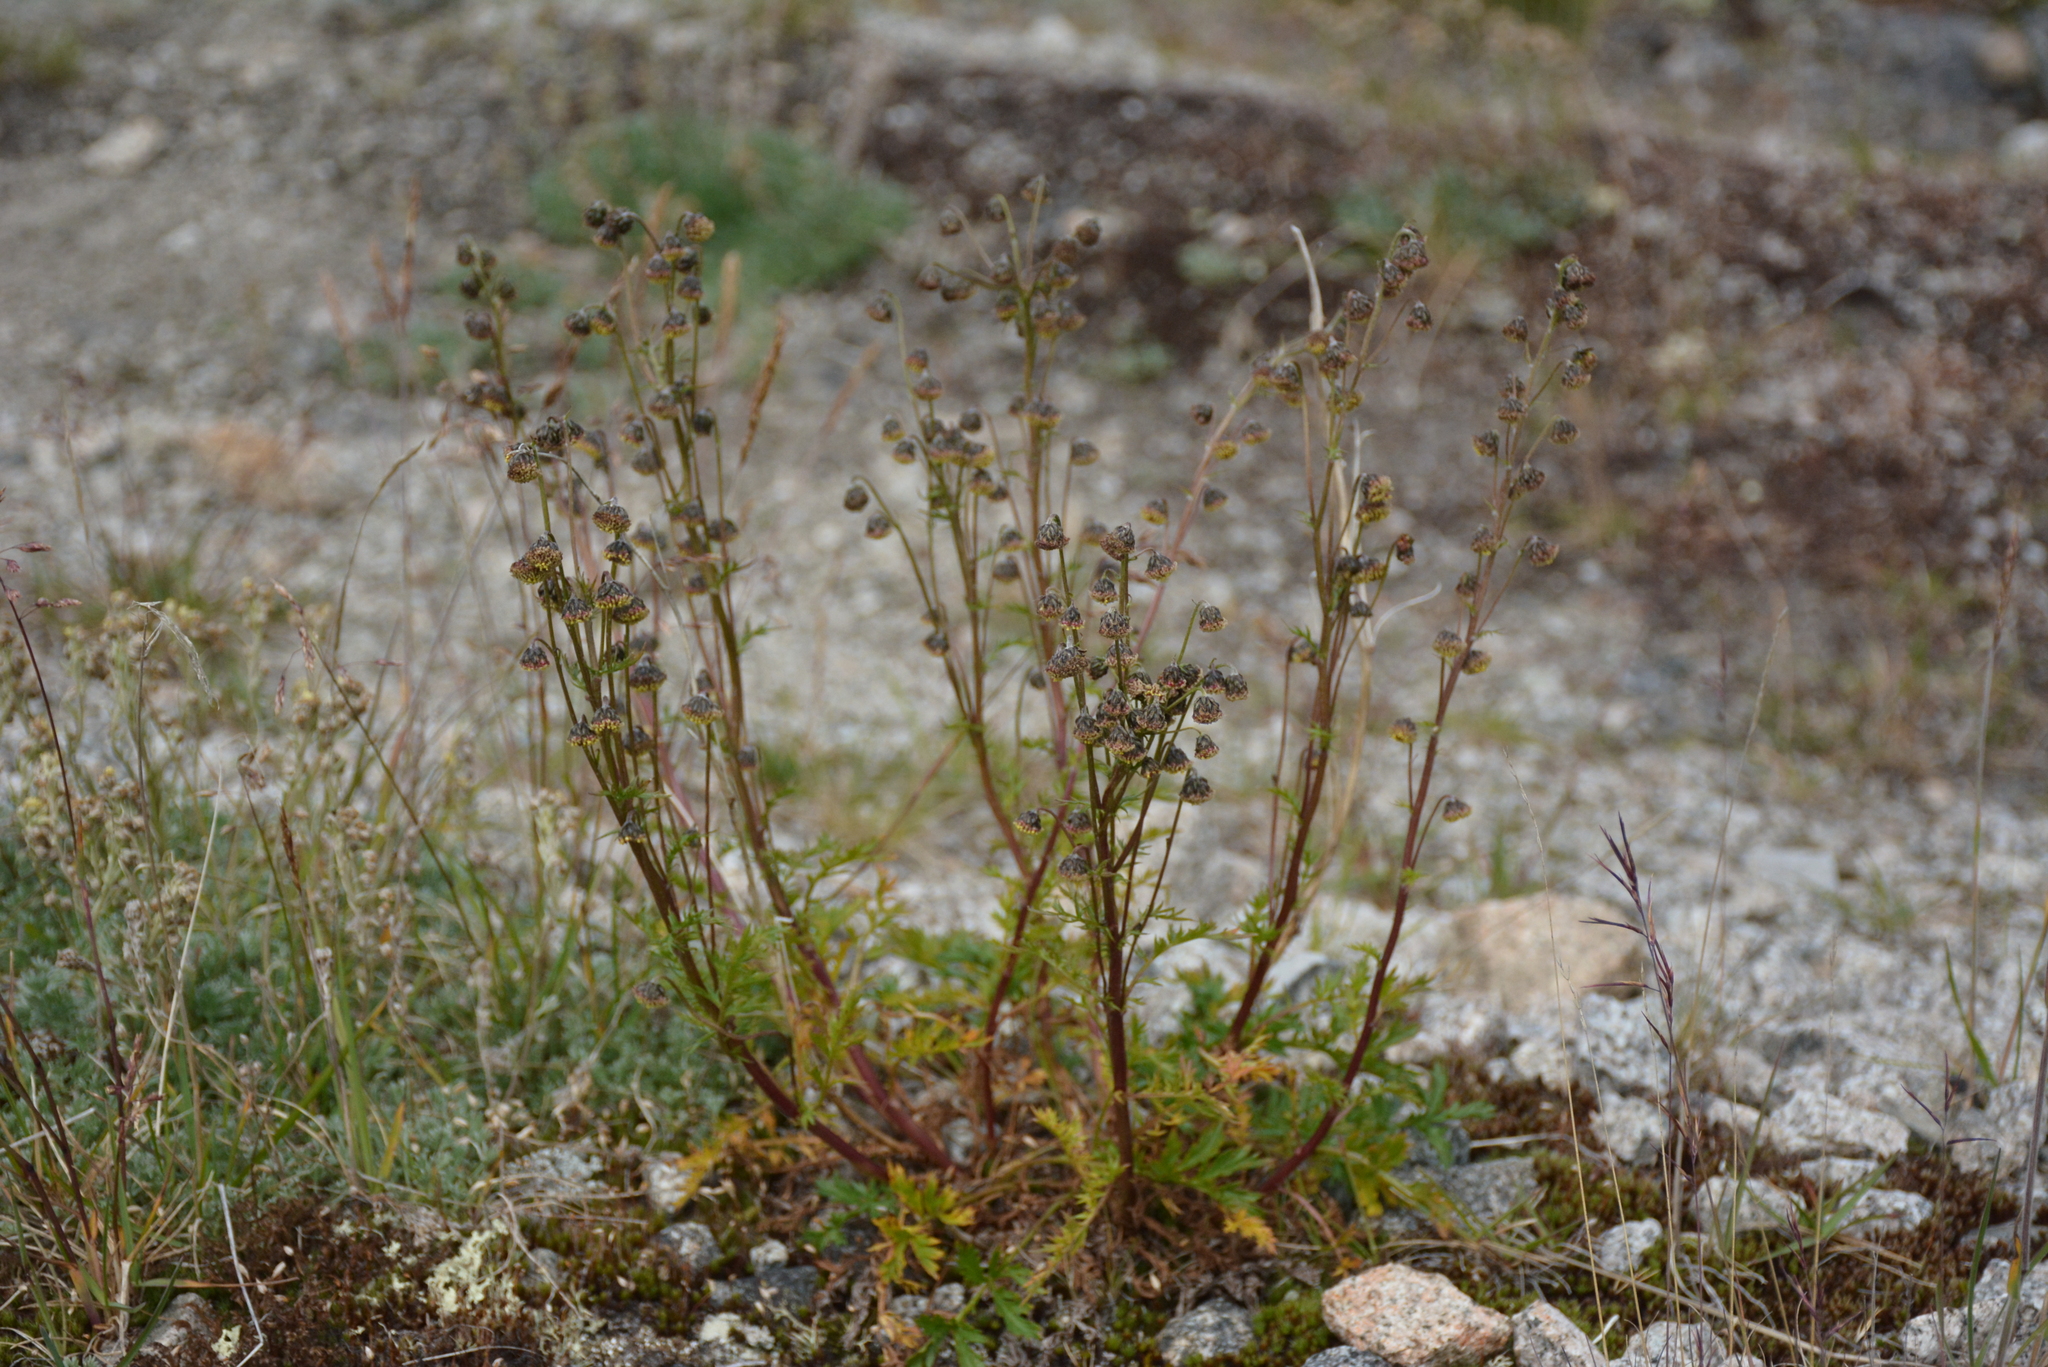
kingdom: Plantae
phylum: Tracheophyta
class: Magnoliopsida
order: Asterales
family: Asteraceae
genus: Artemisia
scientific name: Artemisia arctica
